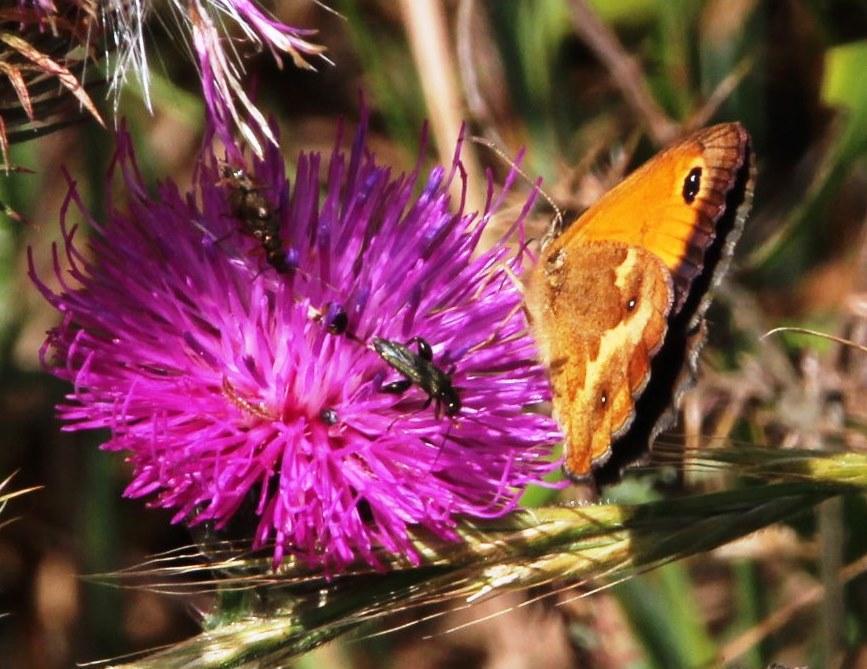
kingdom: Animalia
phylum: Arthropoda
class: Insecta
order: Lepidoptera
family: Nymphalidae
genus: Pyronia
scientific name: Pyronia tithonus
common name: Gatekeeper
